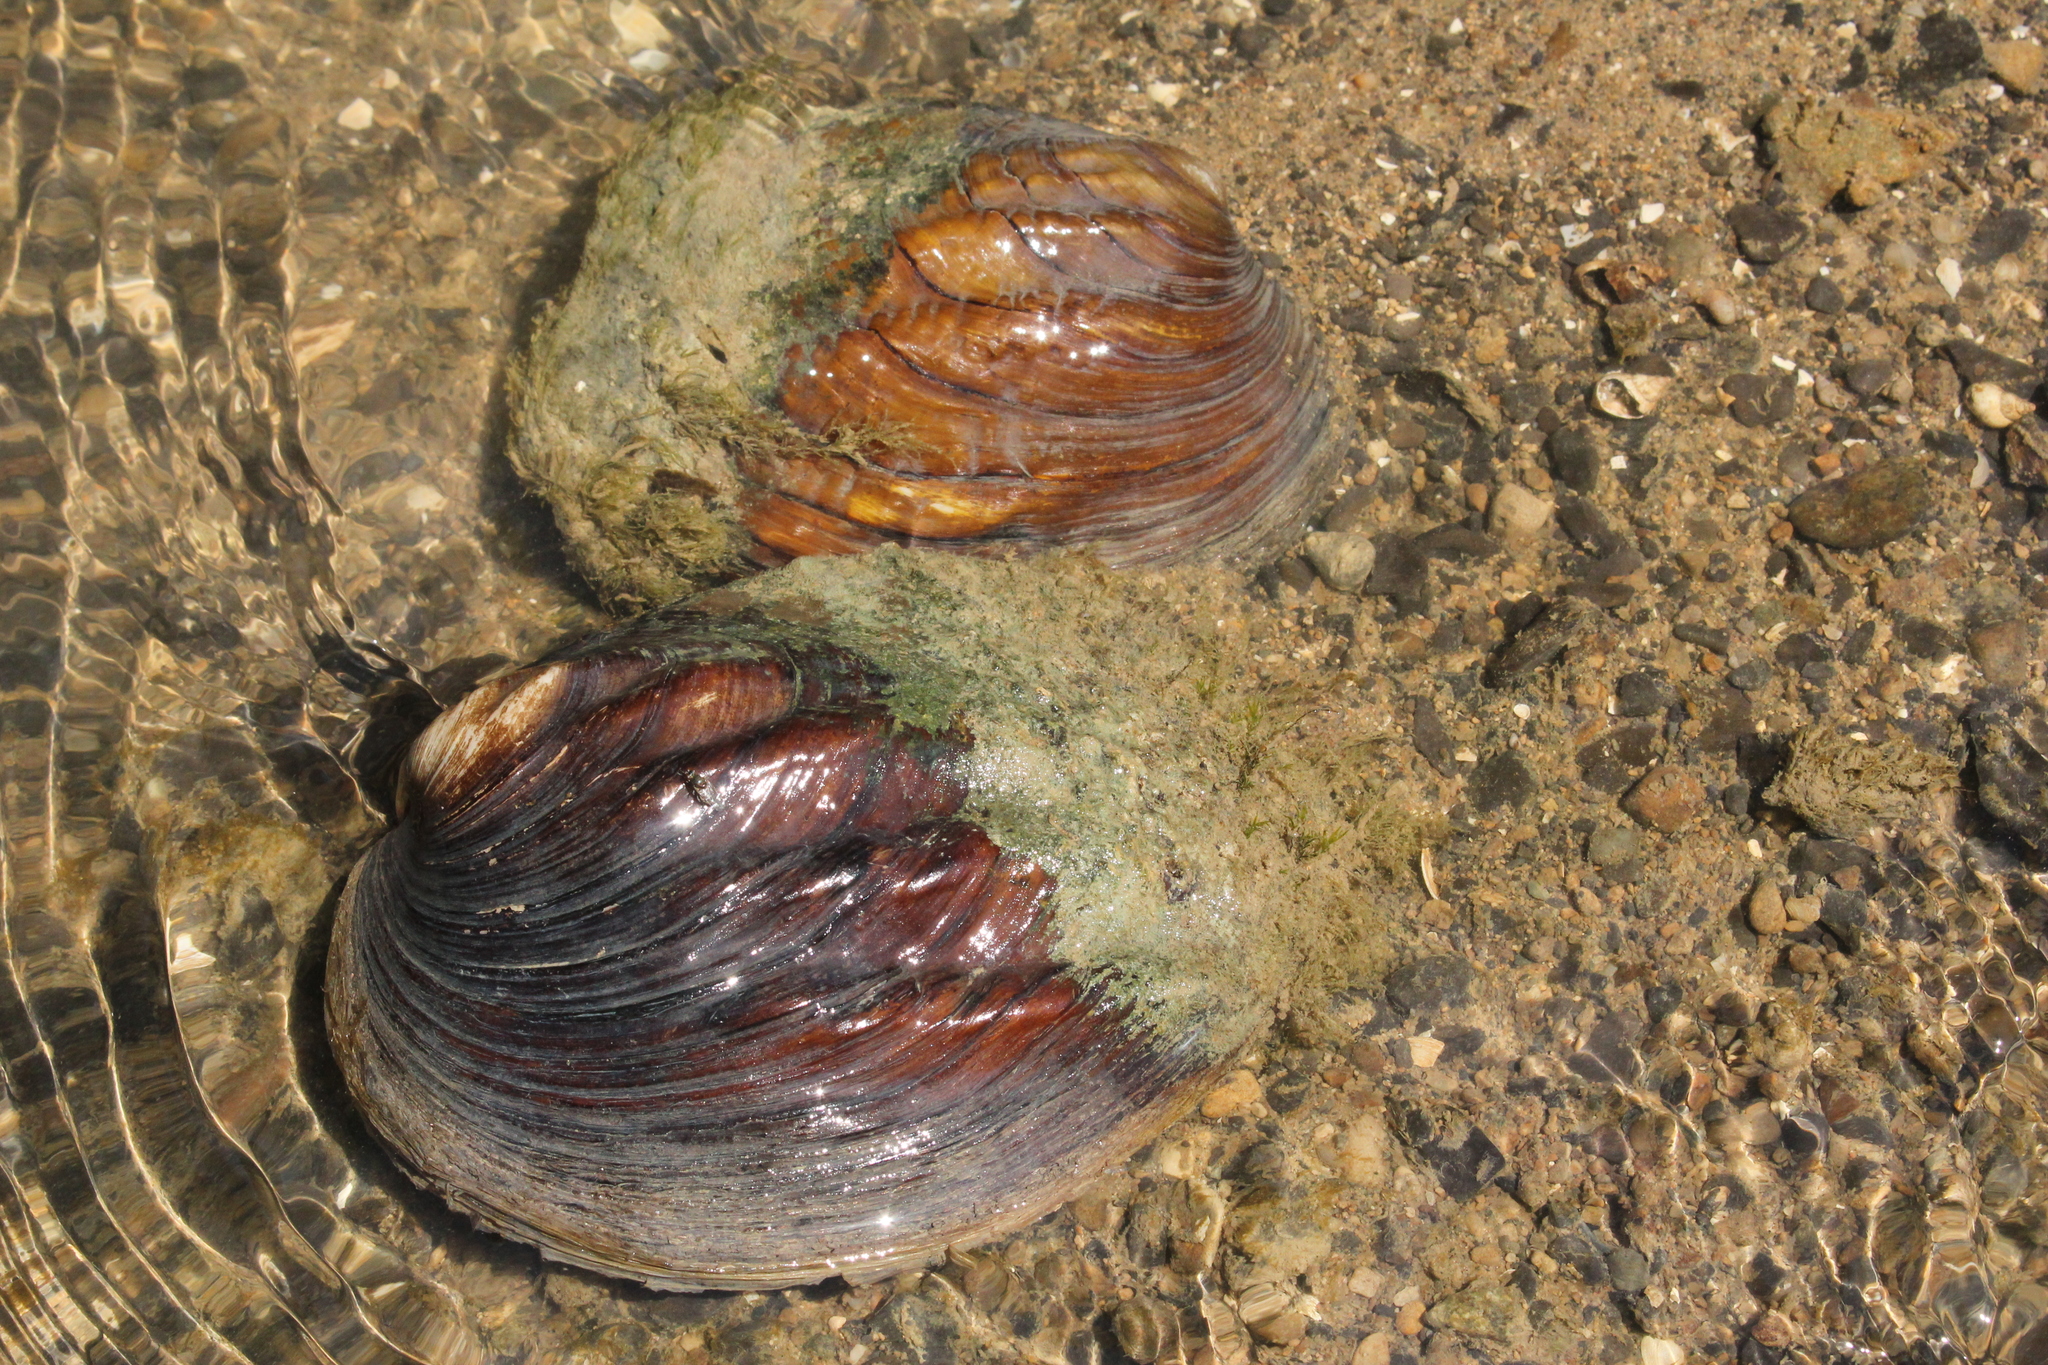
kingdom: Animalia
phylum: Mollusca
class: Bivalvia
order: Unionida
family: Unionidae
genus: Amblema
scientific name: Amblema plicata
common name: Threeridge
